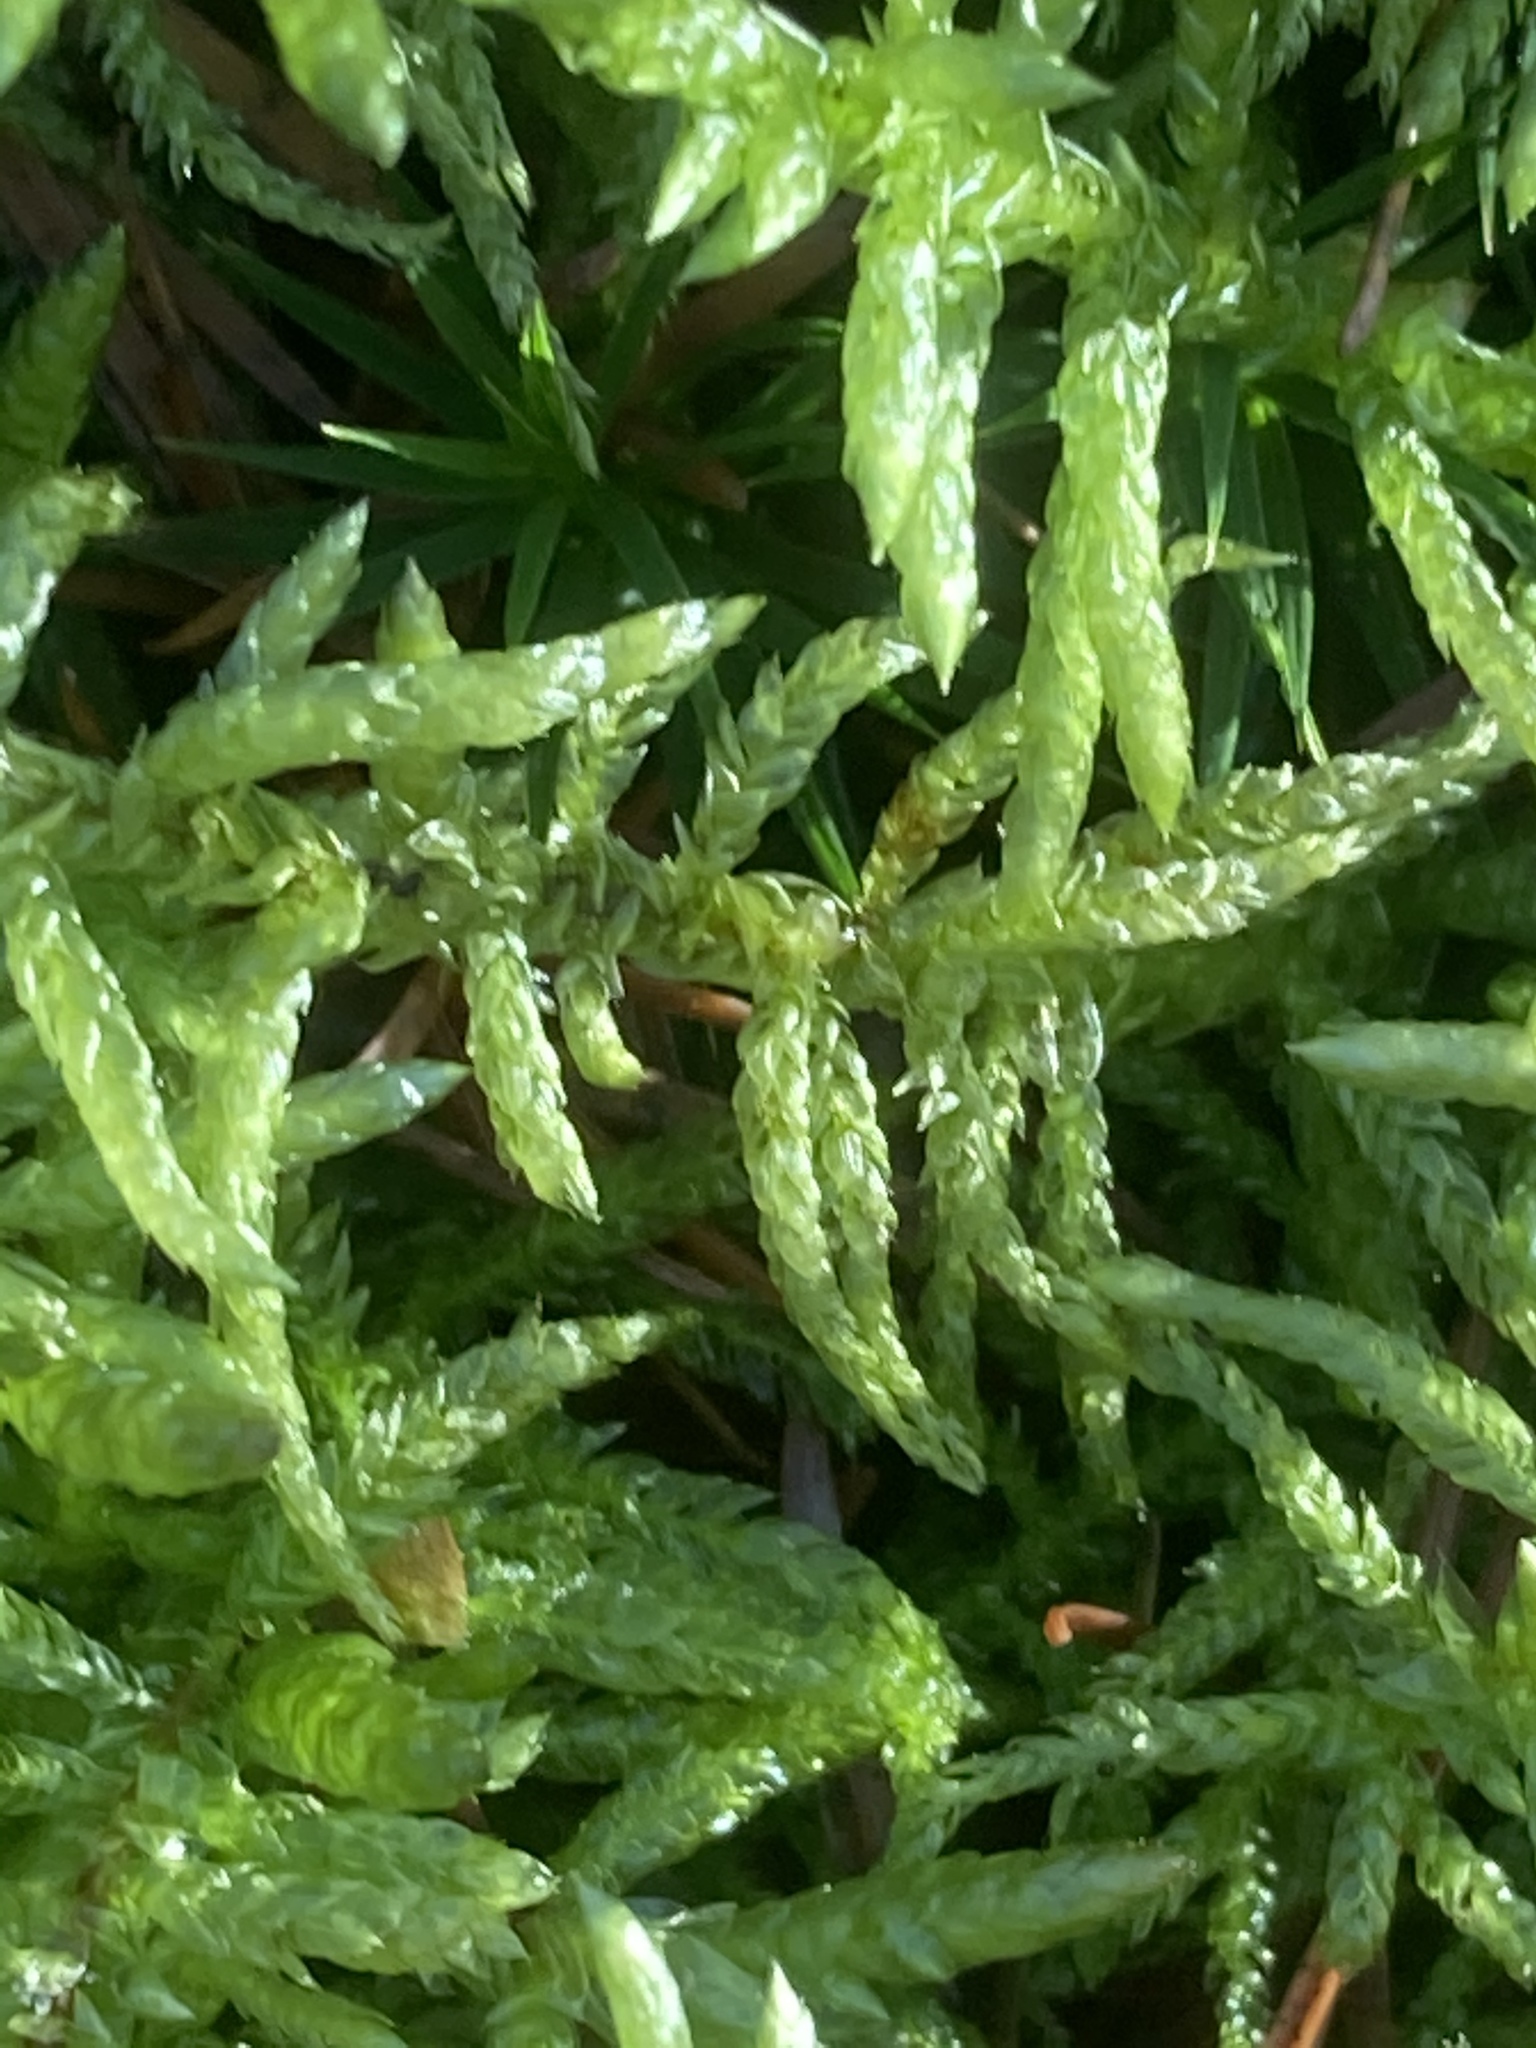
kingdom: Plantae
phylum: Bryophyta
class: Bryopsida
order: Hypnales
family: Brachytheciaceae
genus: Pseudoscleropodium
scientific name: Pseudoscleropodium purum
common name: Neat feather-moss
